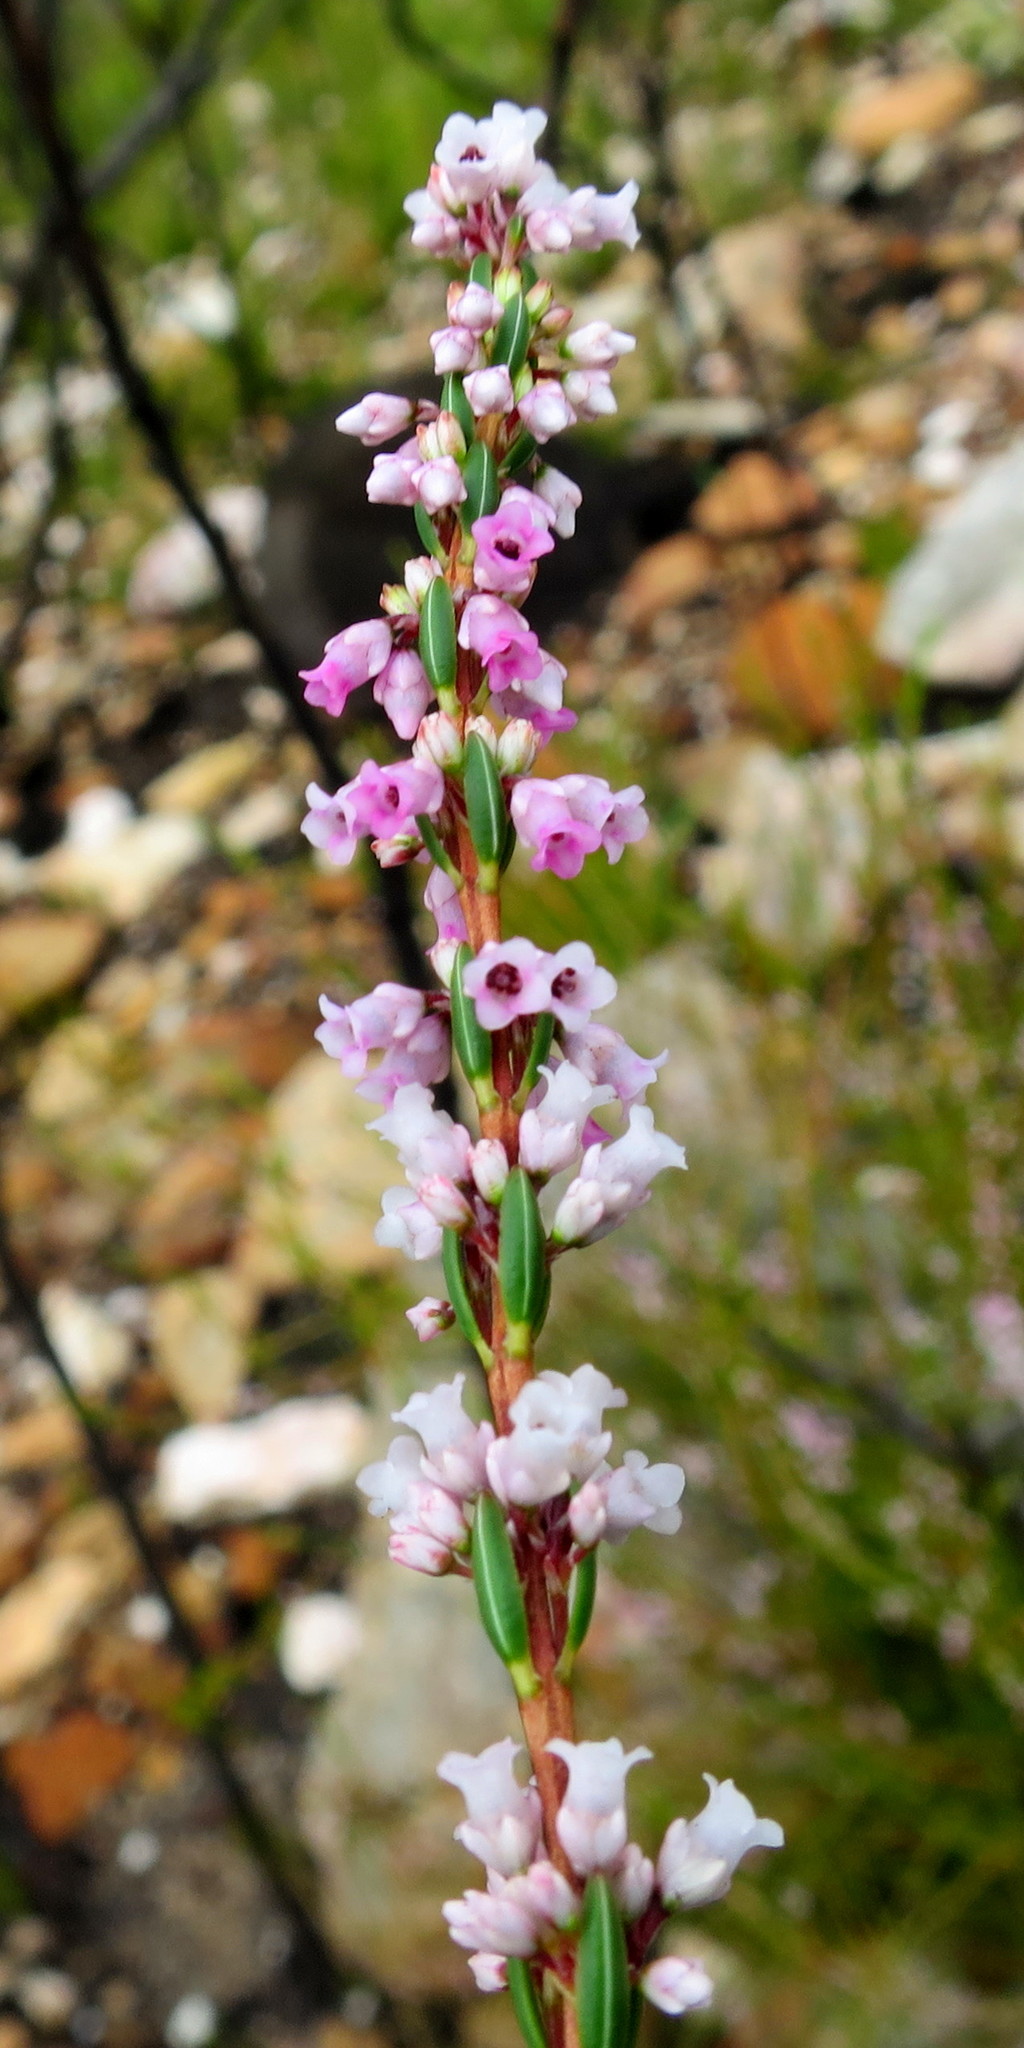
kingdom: Plantae
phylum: Tracheophyta
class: Magnoliopsida
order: Ericales
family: Ericaceae
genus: Erica
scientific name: Erica articularis
